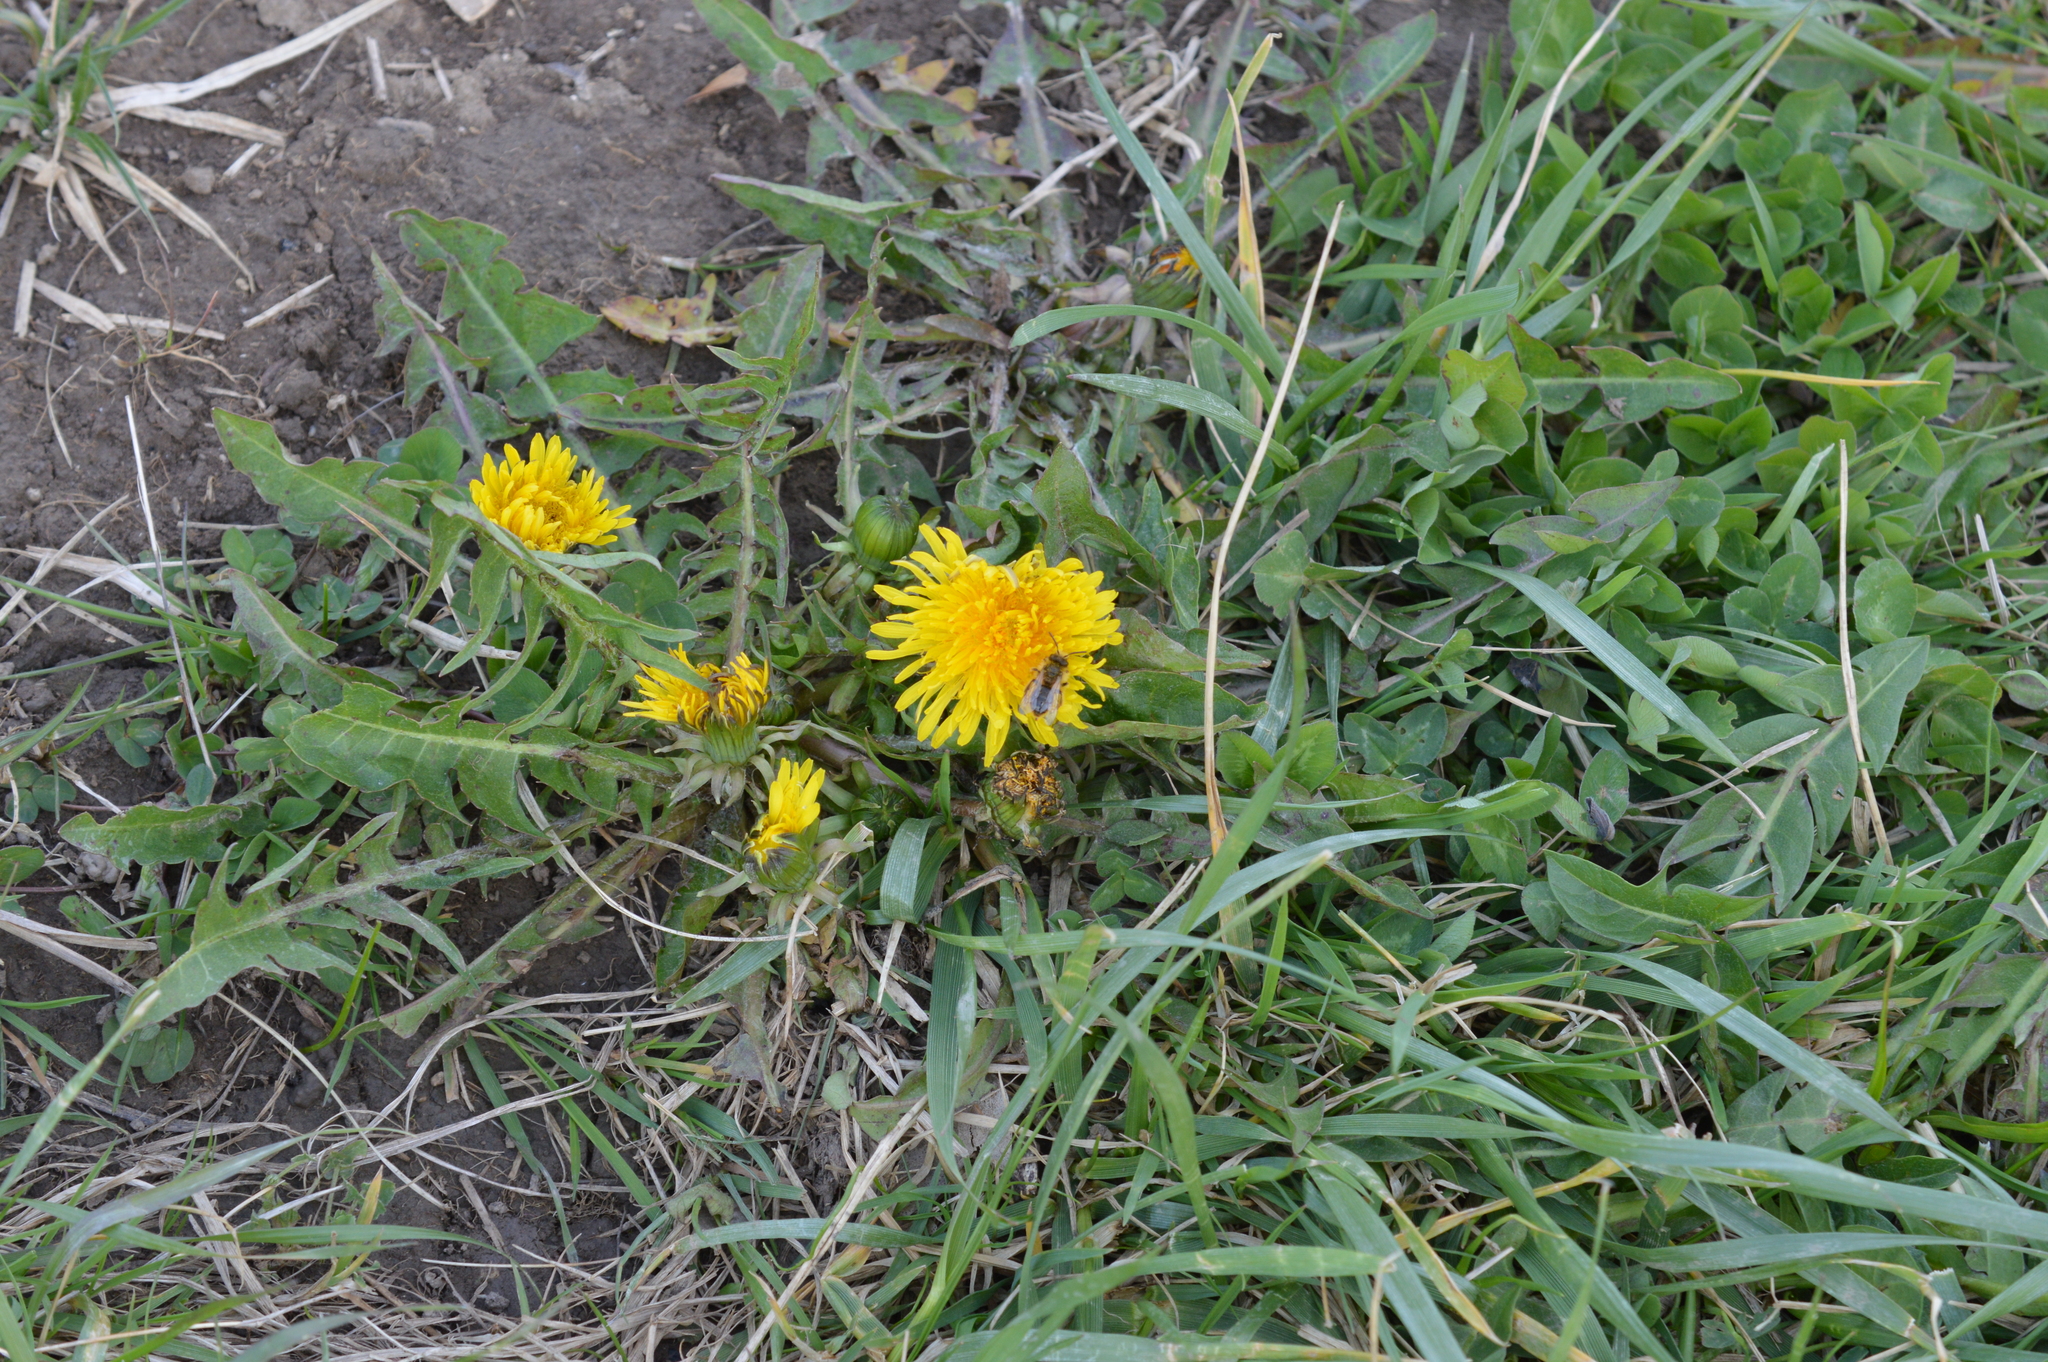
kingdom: Plantae
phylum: Tracheophyta
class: Magnoliopsida
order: Asterales
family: Asteraceae
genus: Taraxacum
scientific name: Taraxacum
